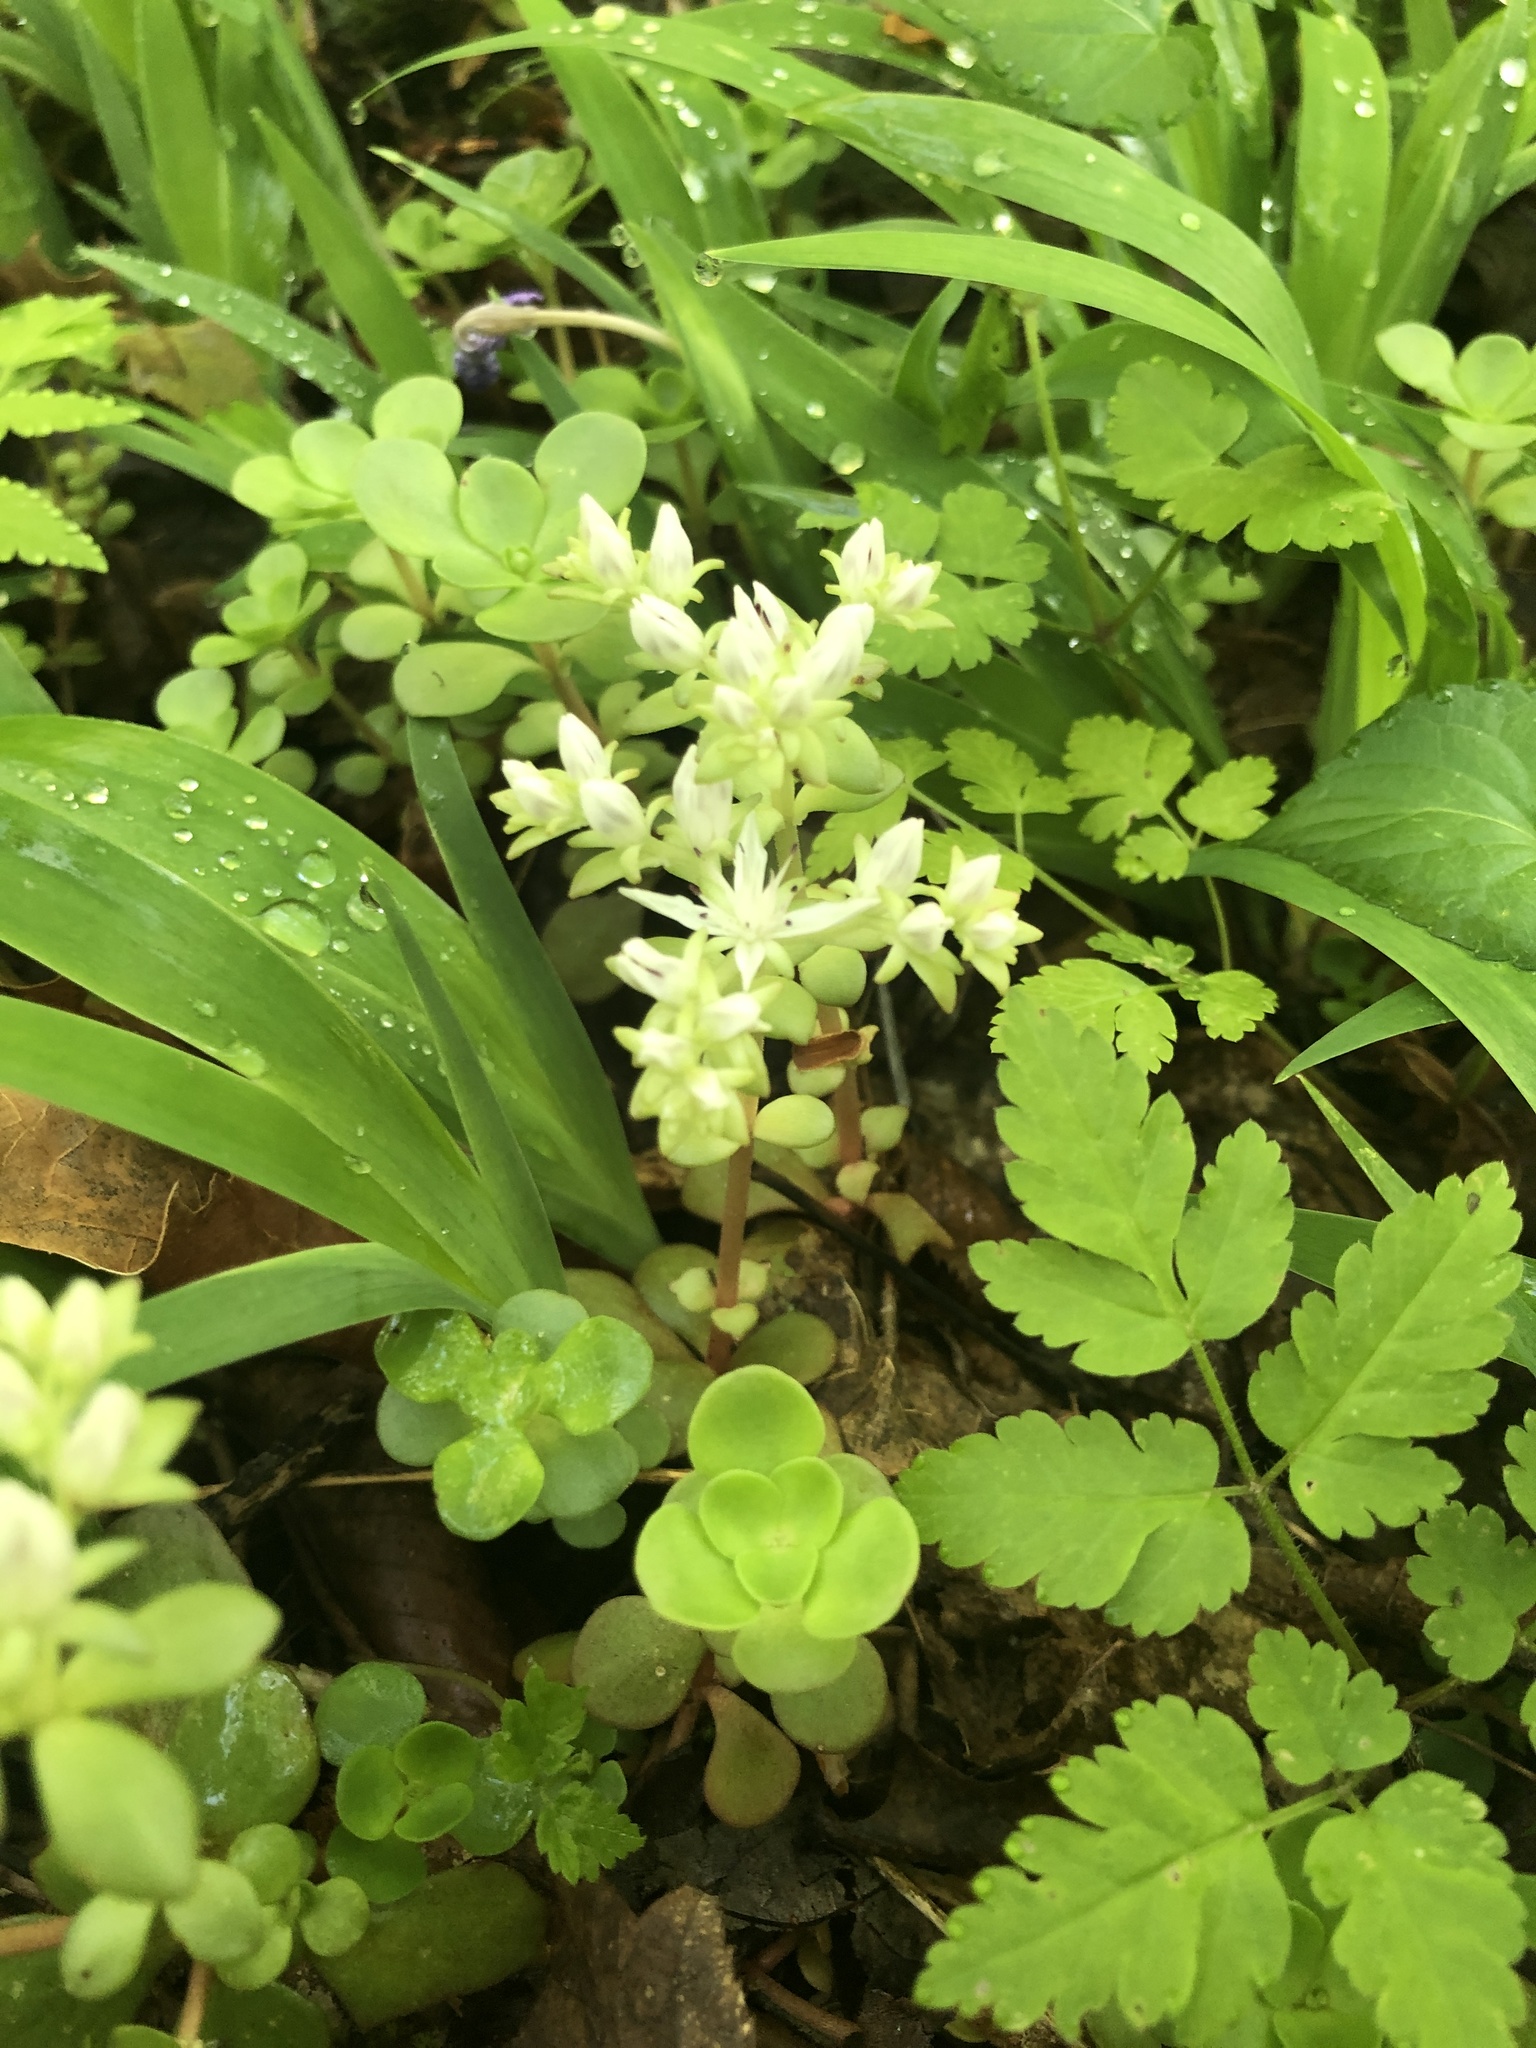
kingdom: Plantae
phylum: Tracheophyta
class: Magnoliopsida
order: Saxifragales
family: Crassulaceae
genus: Sedum
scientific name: Sedum ternatum
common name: Wild stonecrop
